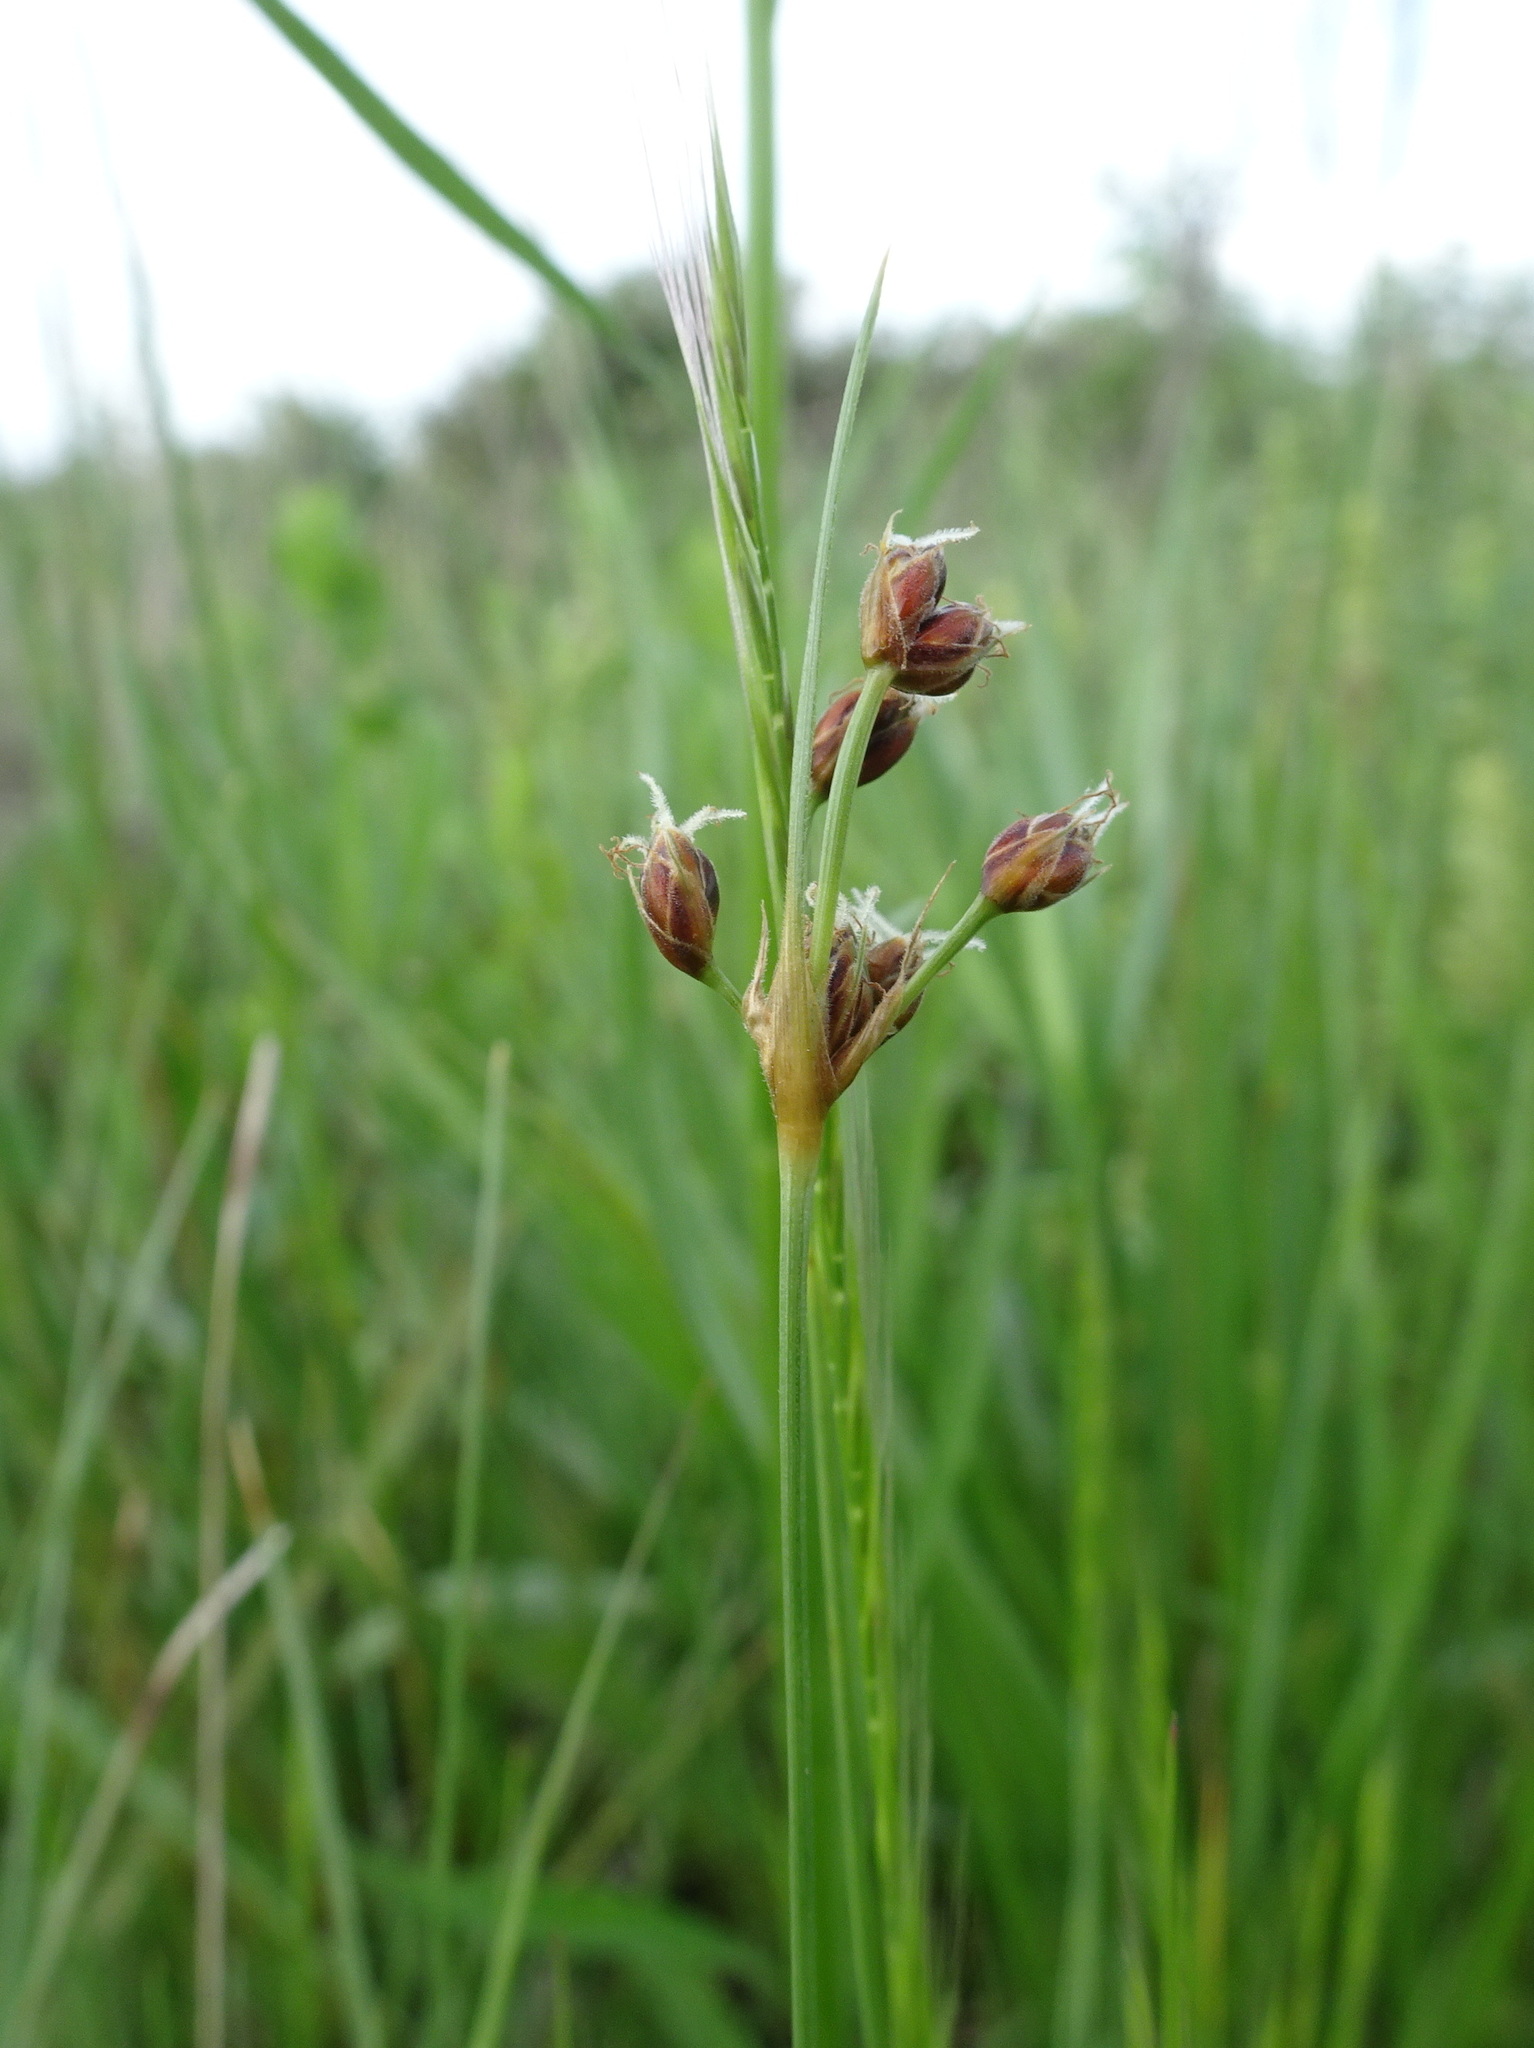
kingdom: Plantae
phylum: Tracheophyta
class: Liliopsida
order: Poales
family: Cyperaceae
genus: Fimbristylis
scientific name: Fimbristylis puberula
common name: Hairy fimbristylis
